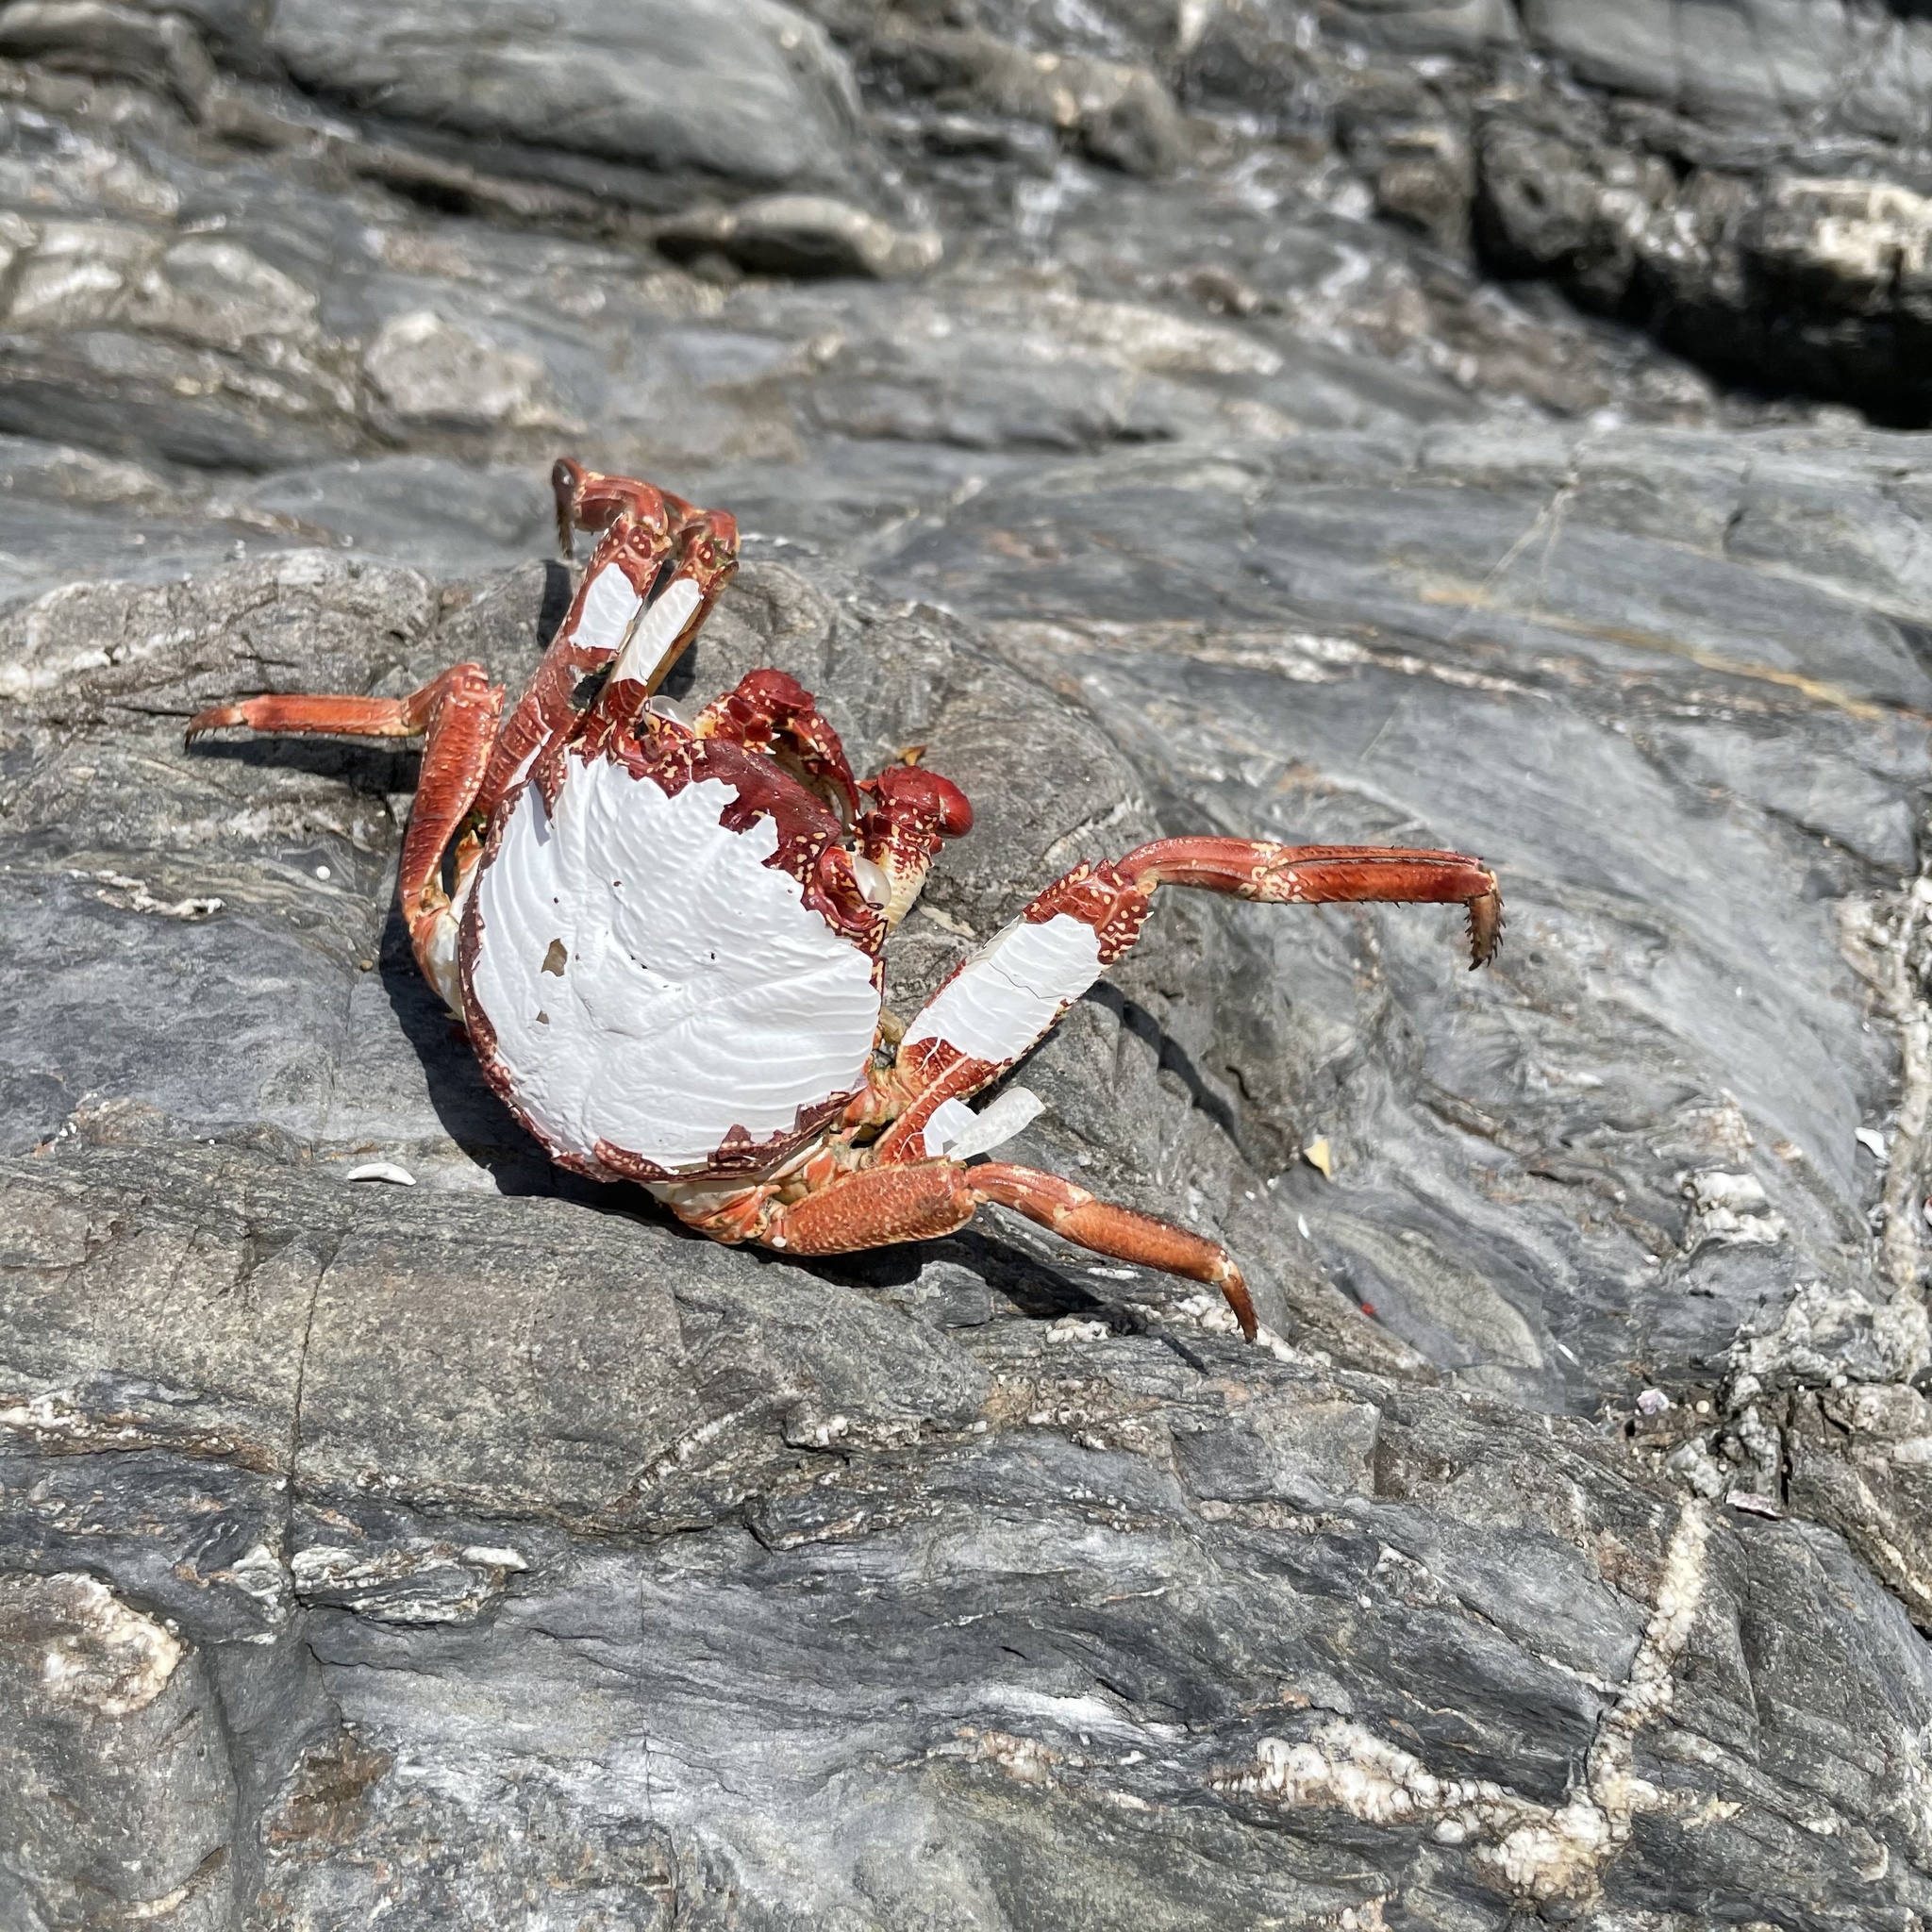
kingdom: Animalia
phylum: Arthropoda
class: Malacostraca
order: Decapoda
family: Grapsidae
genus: Grapsus
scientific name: Grapsus tenuicrustatus
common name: Natal lightfoot crab
